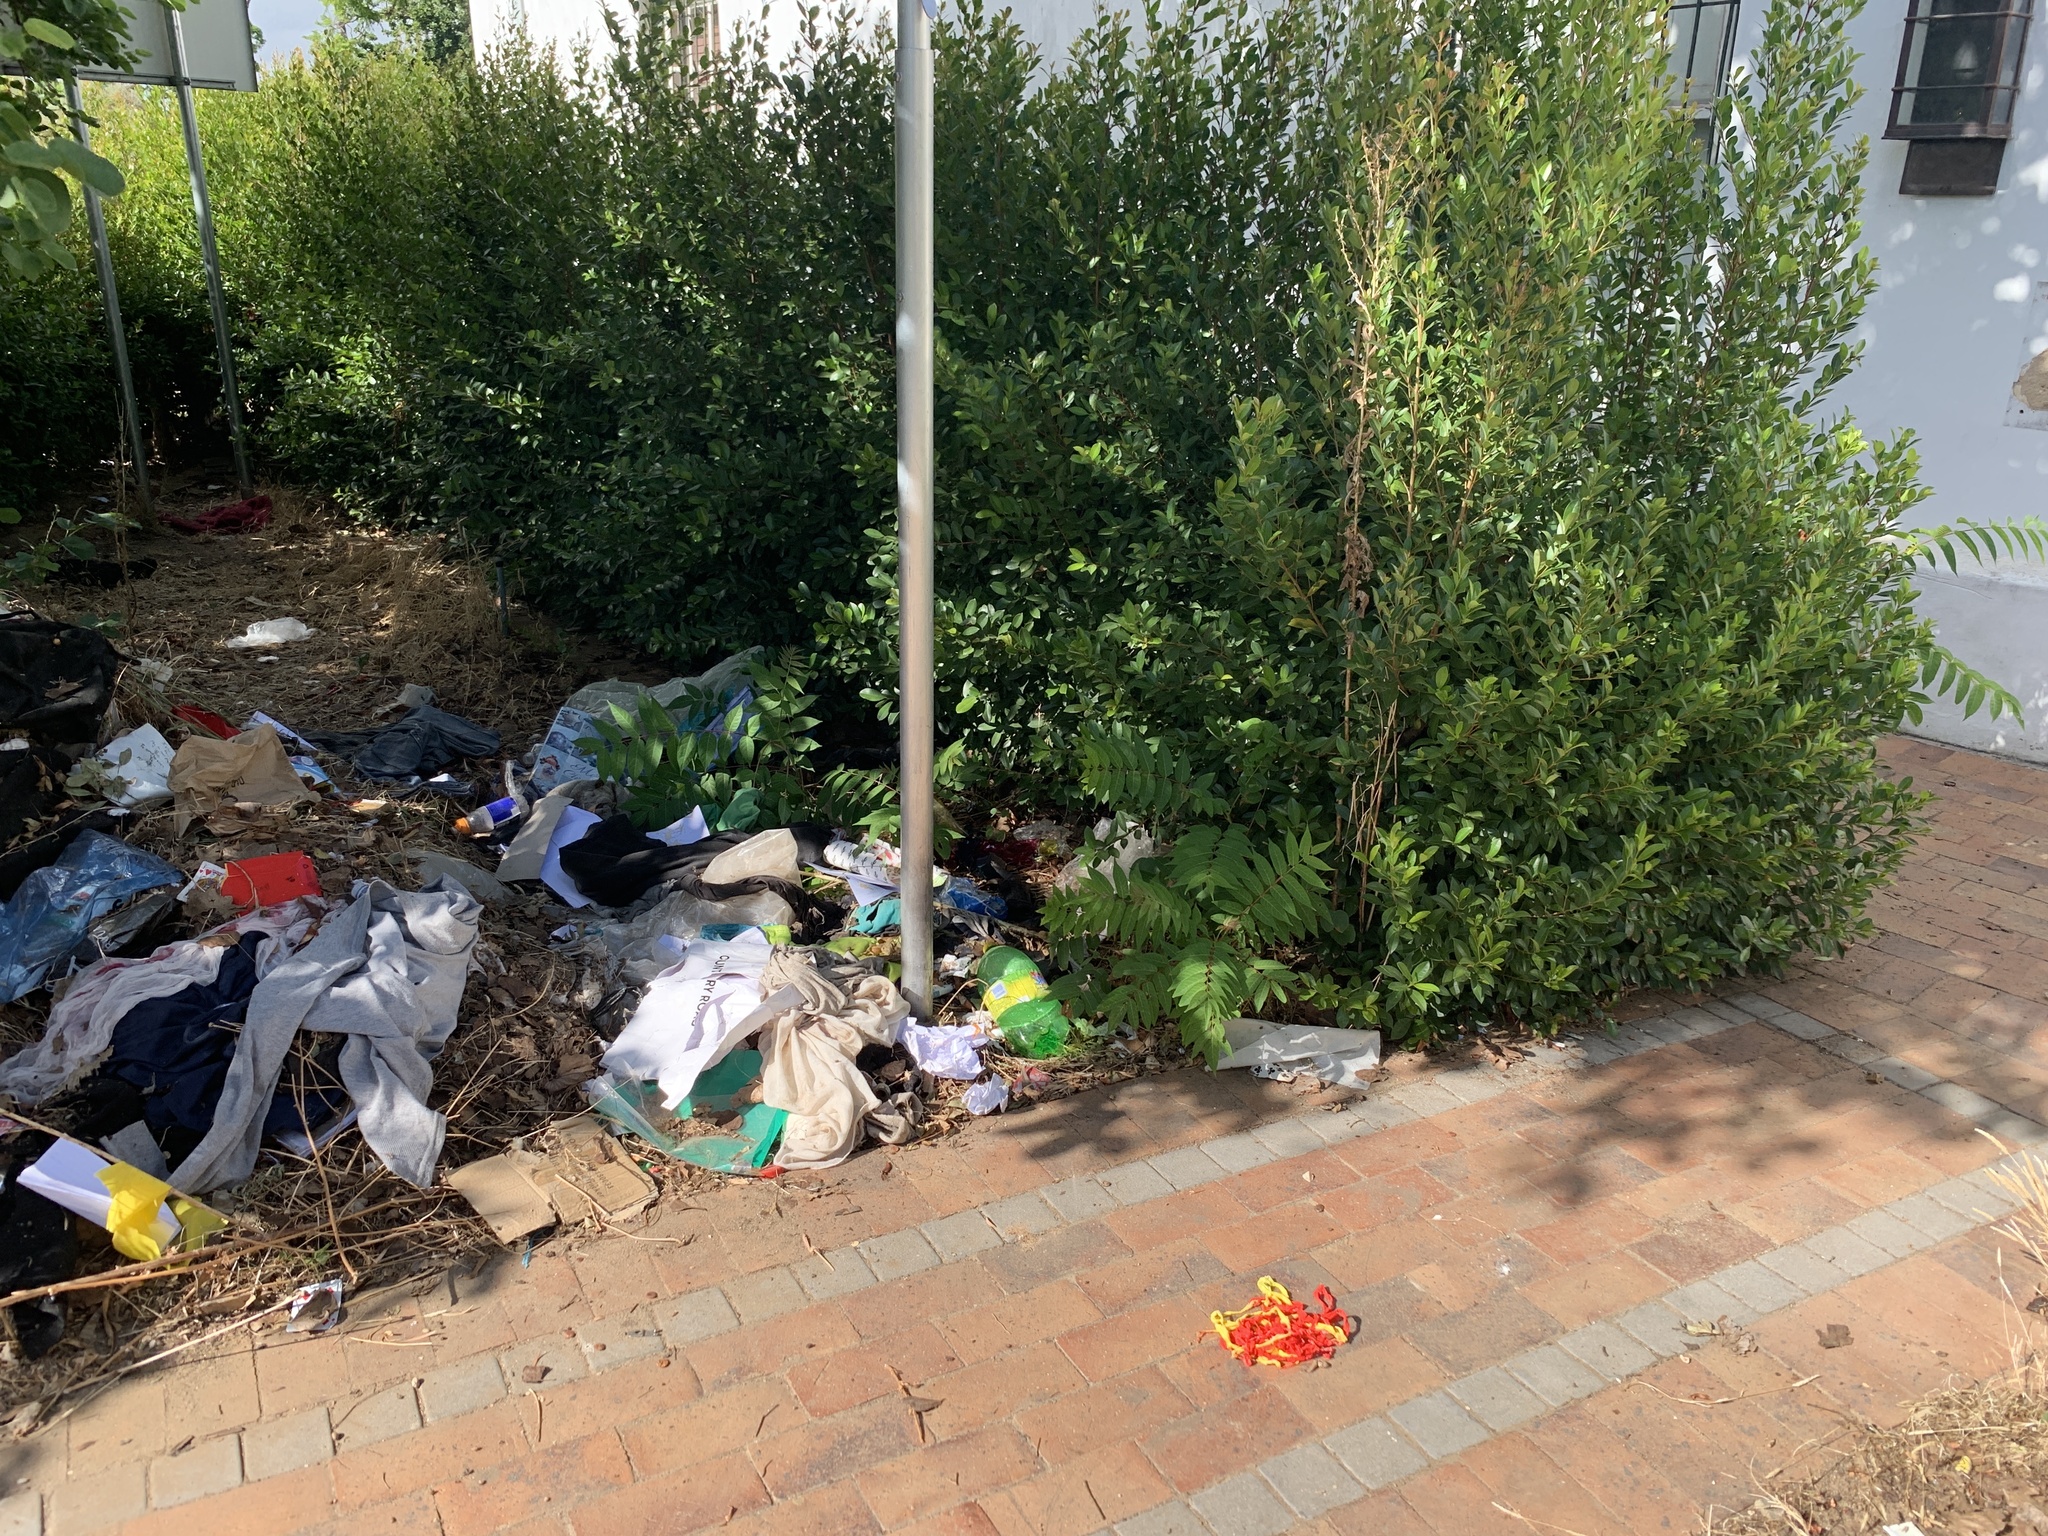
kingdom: Plantae
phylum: Tracheophyta
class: Magnoliopsida
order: Sapindales
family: Simaroubaceae
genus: Ailanthus
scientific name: Ailanthus altissima
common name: Tree-of-heaven
